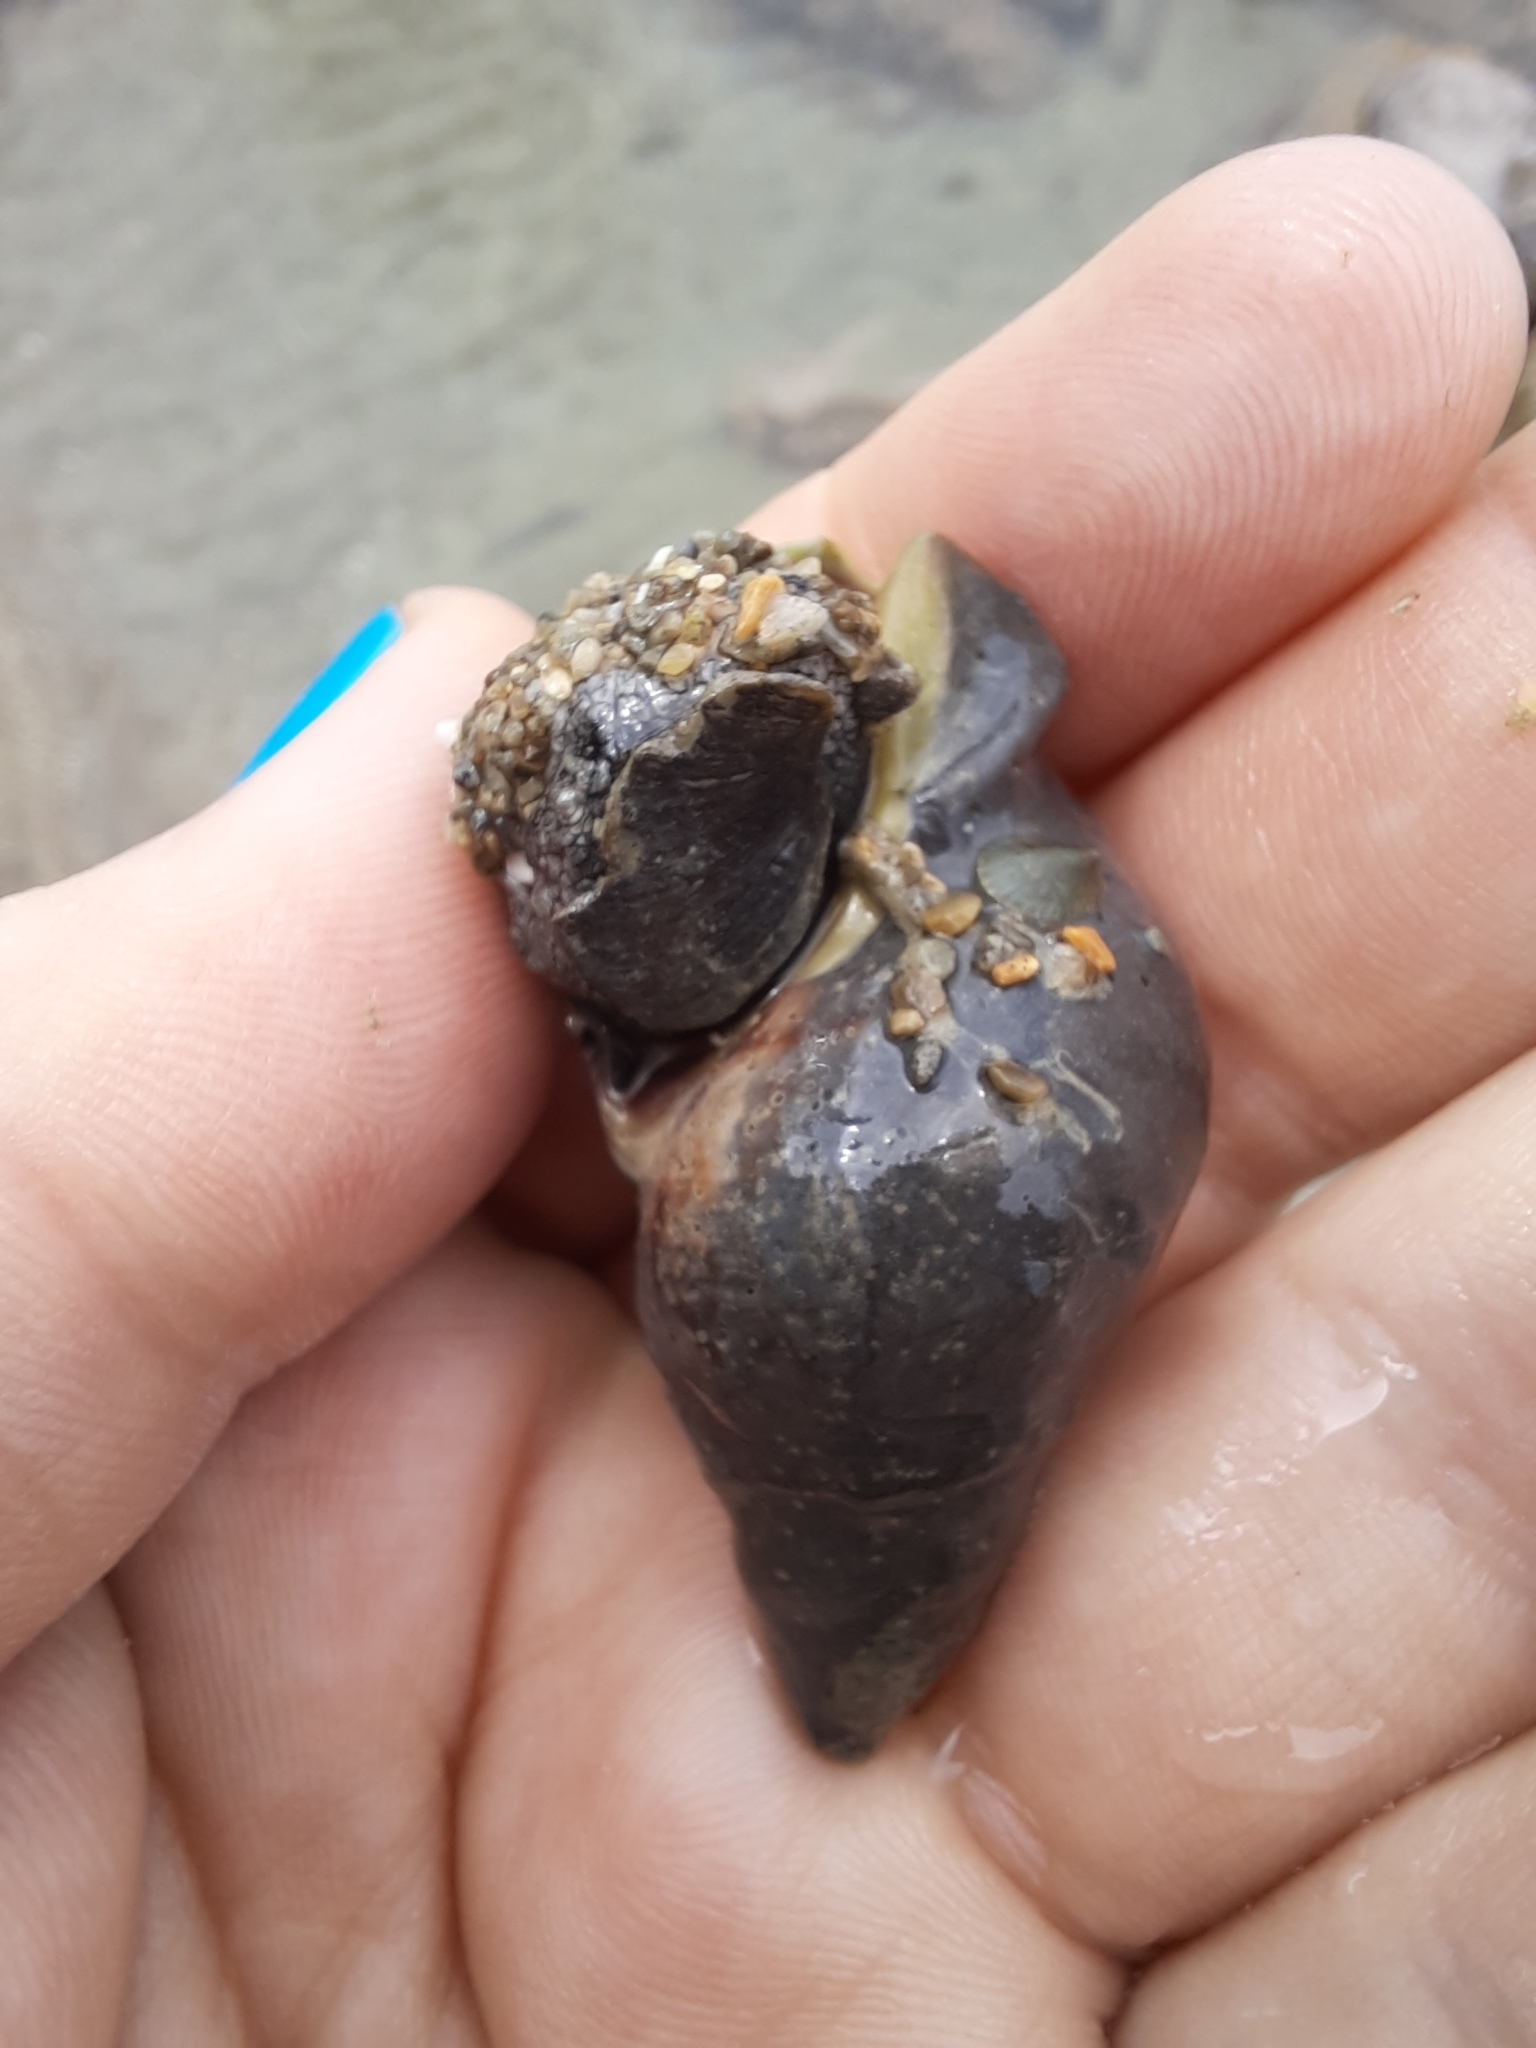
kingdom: Animalia
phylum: Mollusca
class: Gastropoda
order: Neogastropoda
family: Cominellidae
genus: Cominella
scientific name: Cominella maculosa
